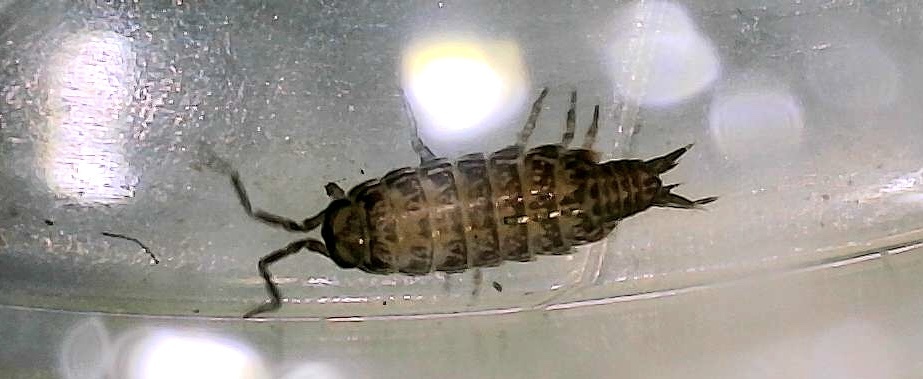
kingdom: Animalia
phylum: Arthropoda
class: Malacostraca
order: Isopoda
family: Philosciidae
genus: Atlantoscia
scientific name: Atlantoscia floridana
